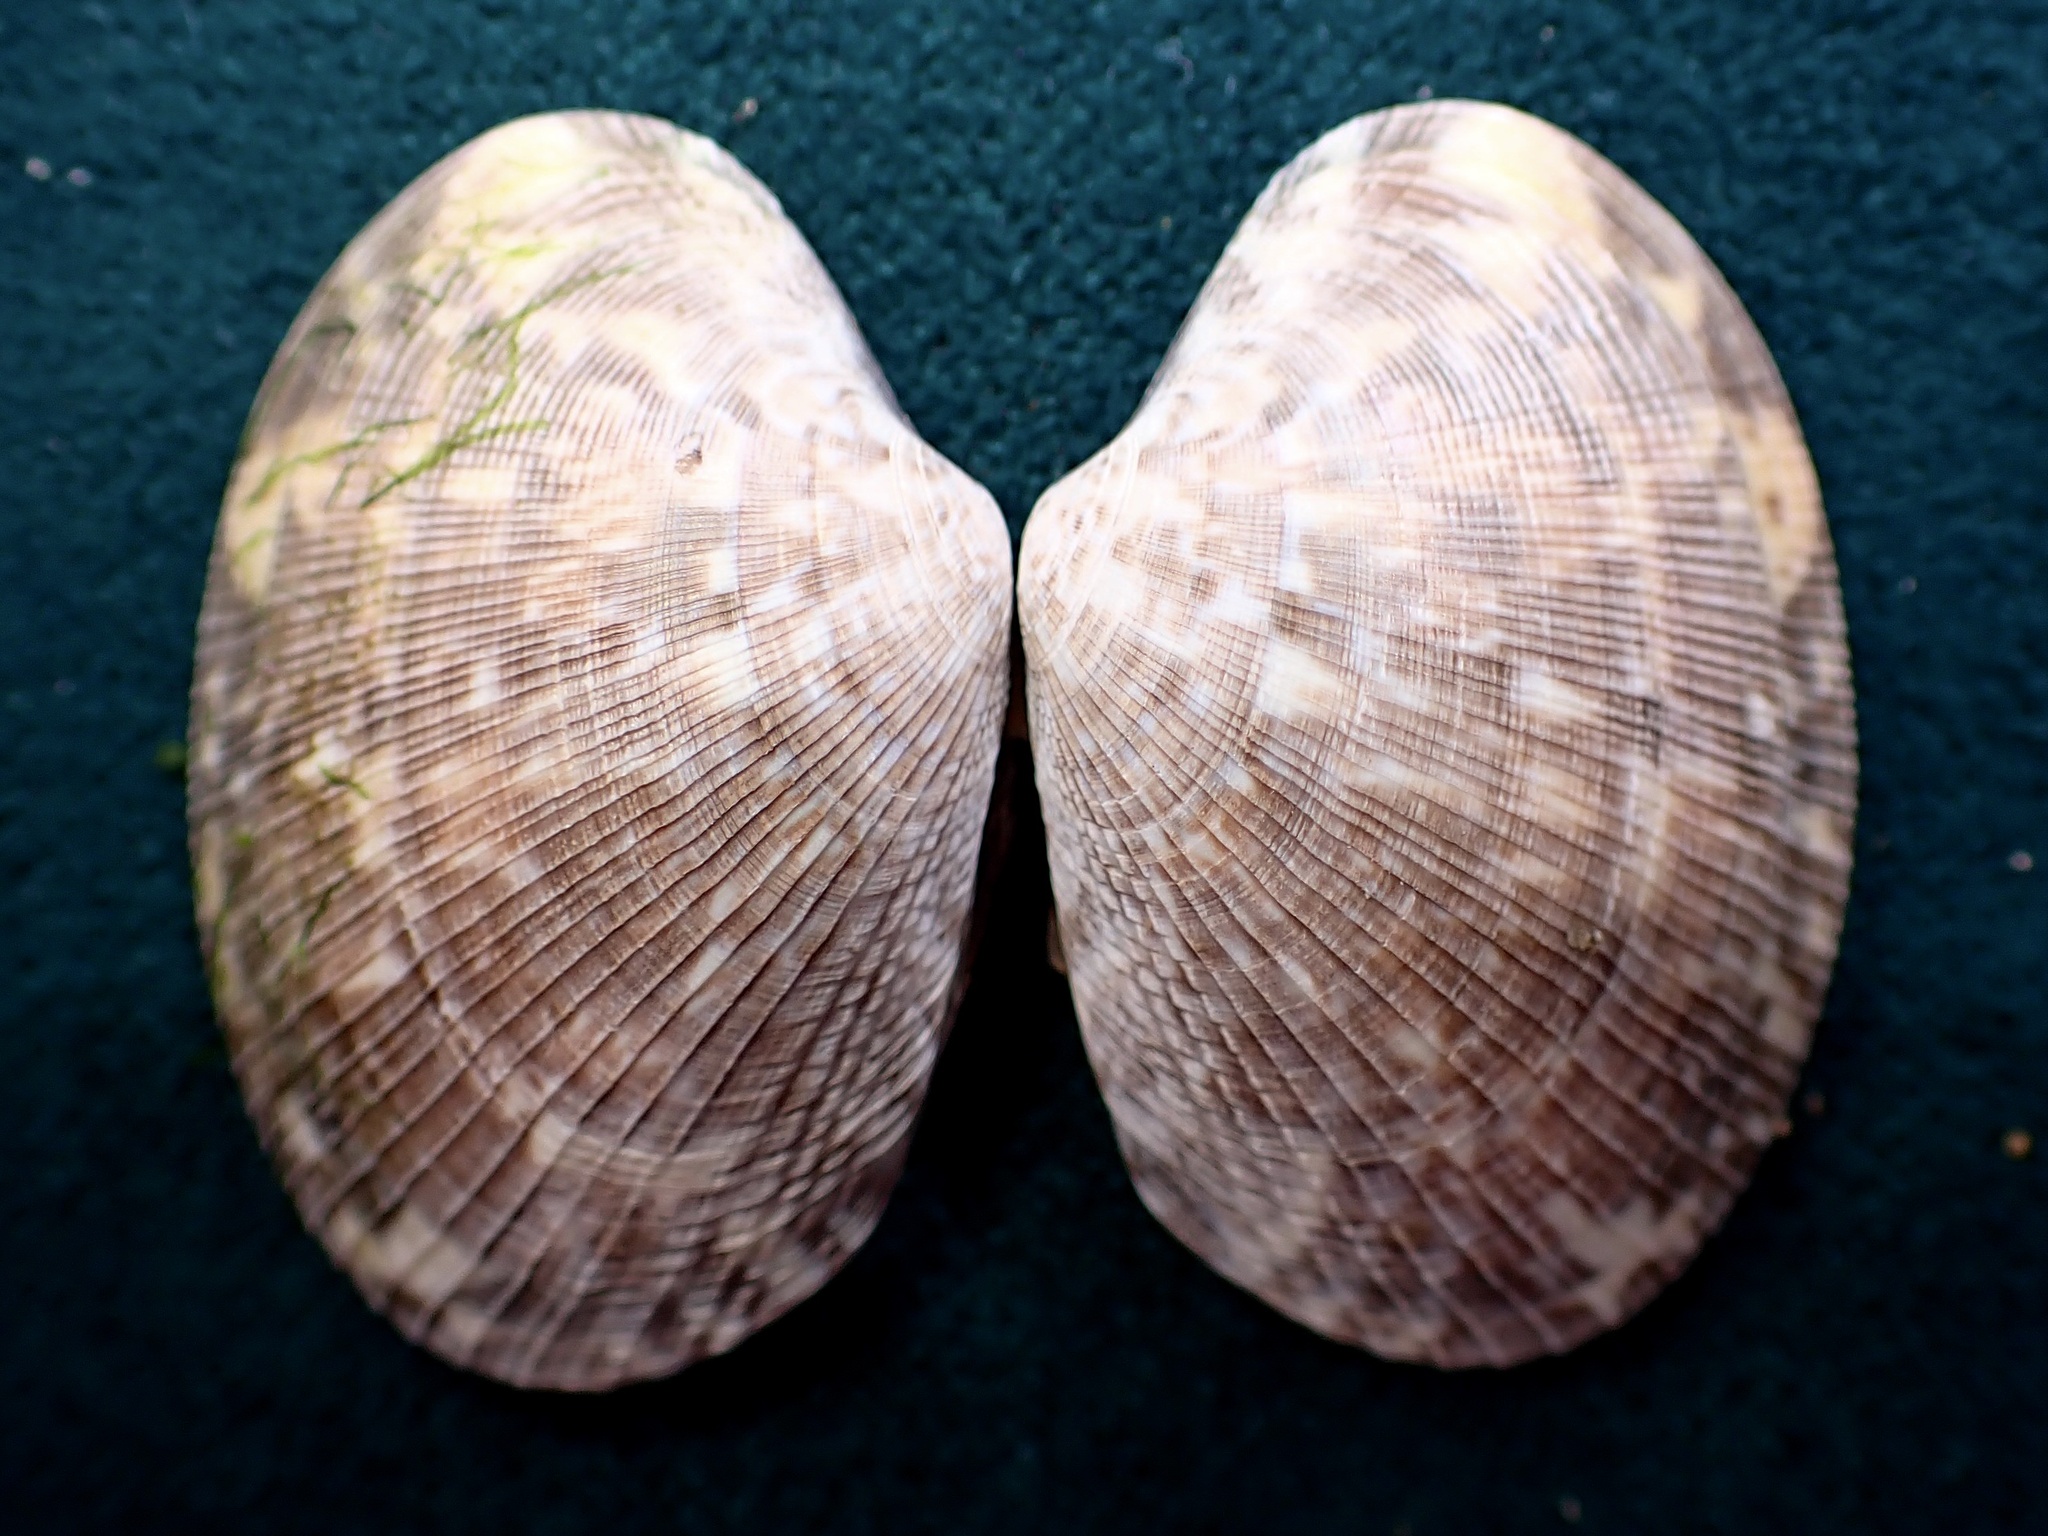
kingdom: Animalia
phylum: Mollusca
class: Bivalvia
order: Venerida
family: Veneridae
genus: Ruditapes
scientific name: Ruditapes philippinarum
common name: Manila clam
